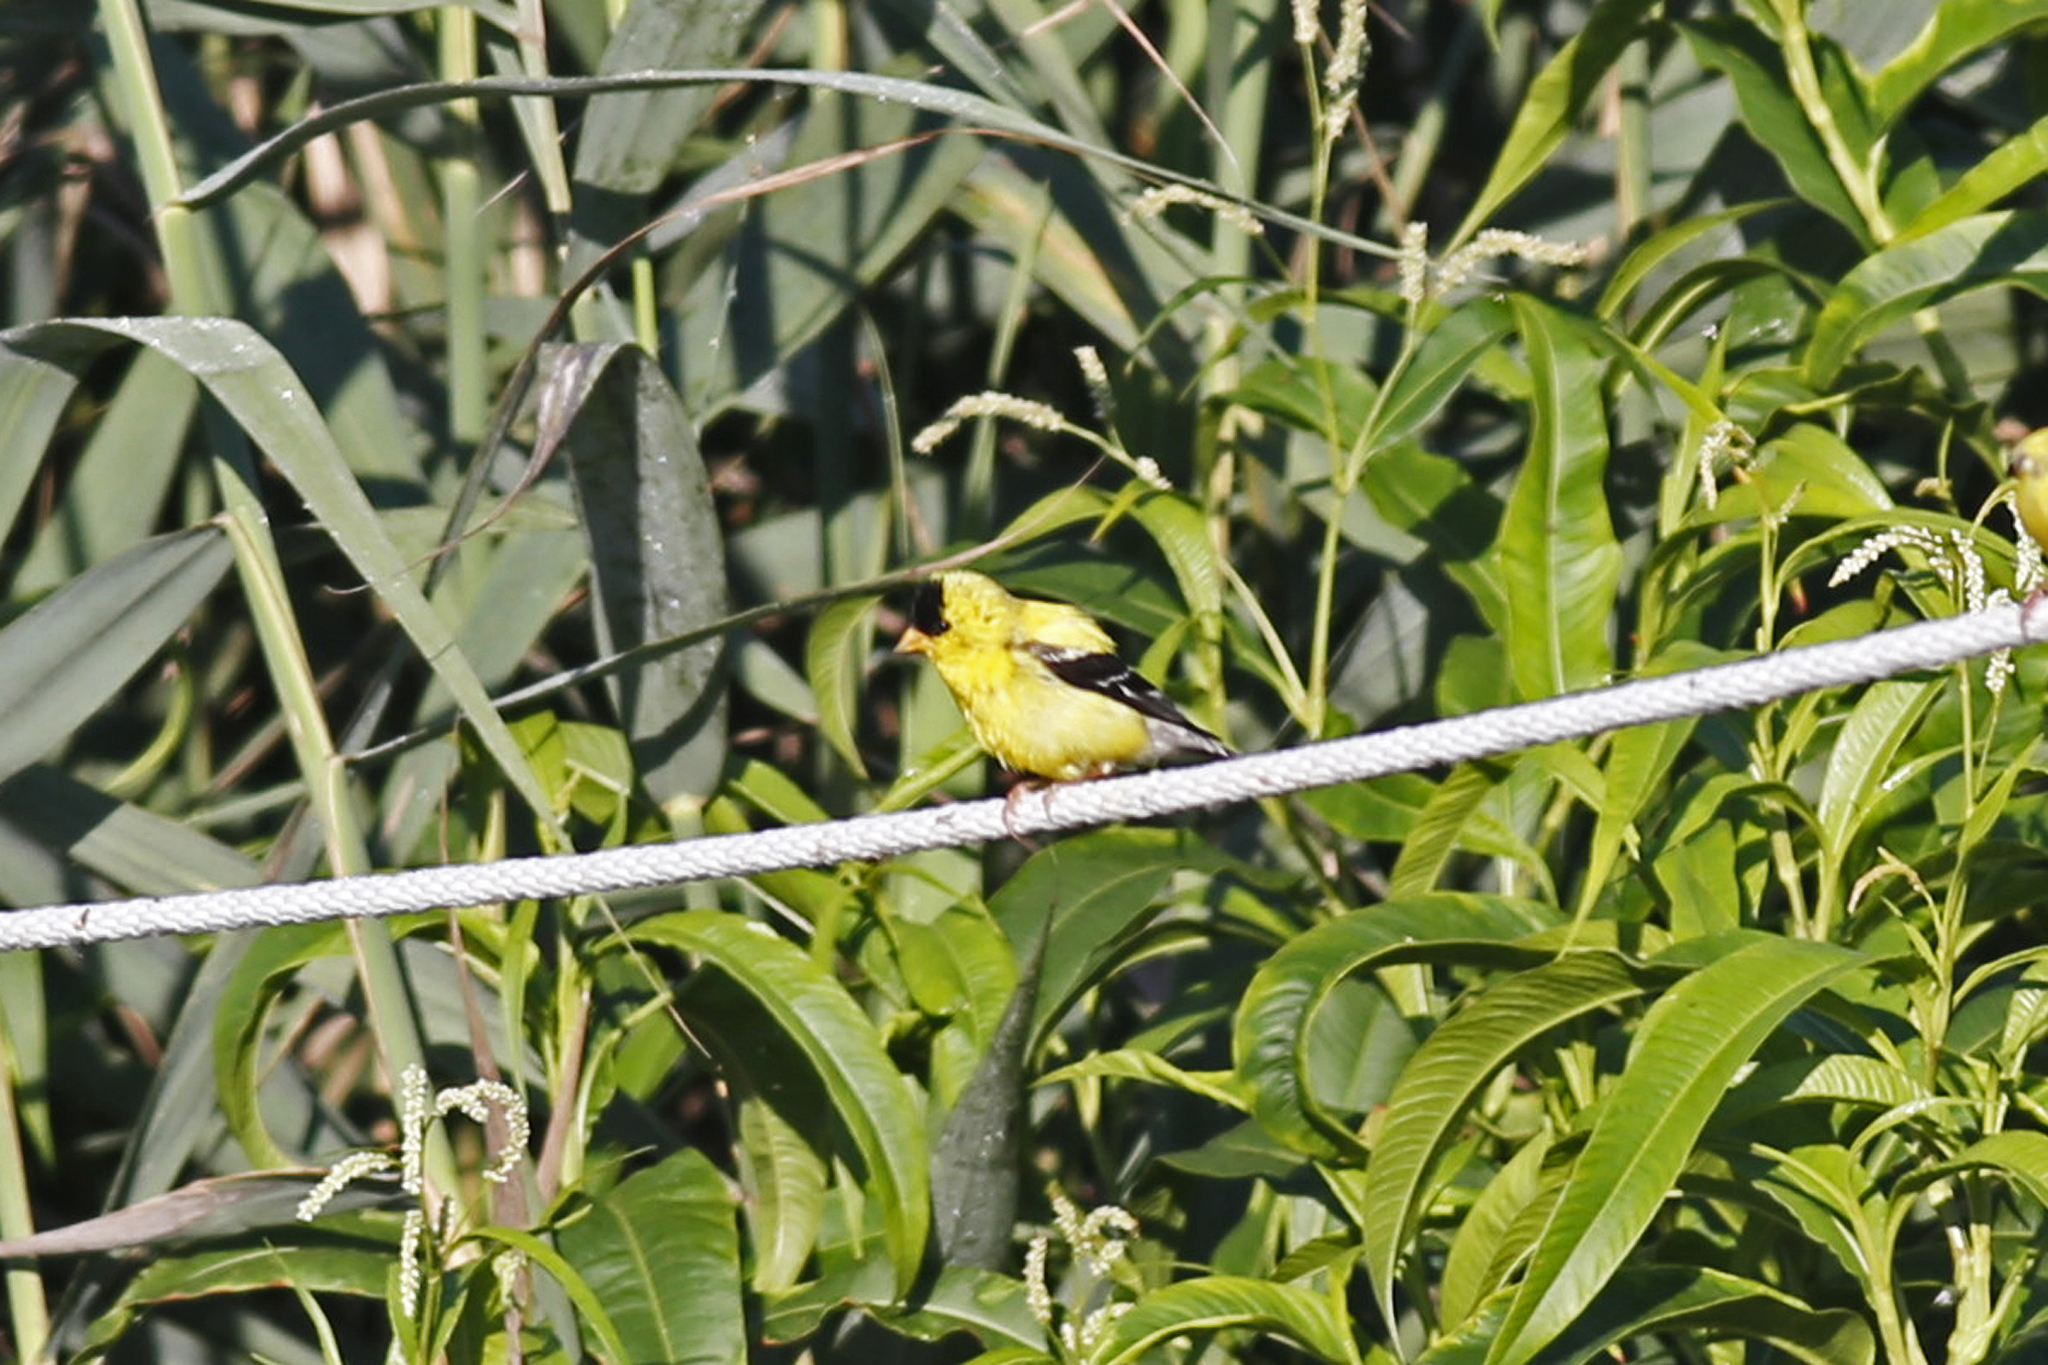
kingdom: Animalia
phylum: Chordata
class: Aves
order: Passeriformes
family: Fringillidae
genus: Spinus
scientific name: Spinus tristis
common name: American goldfinch
